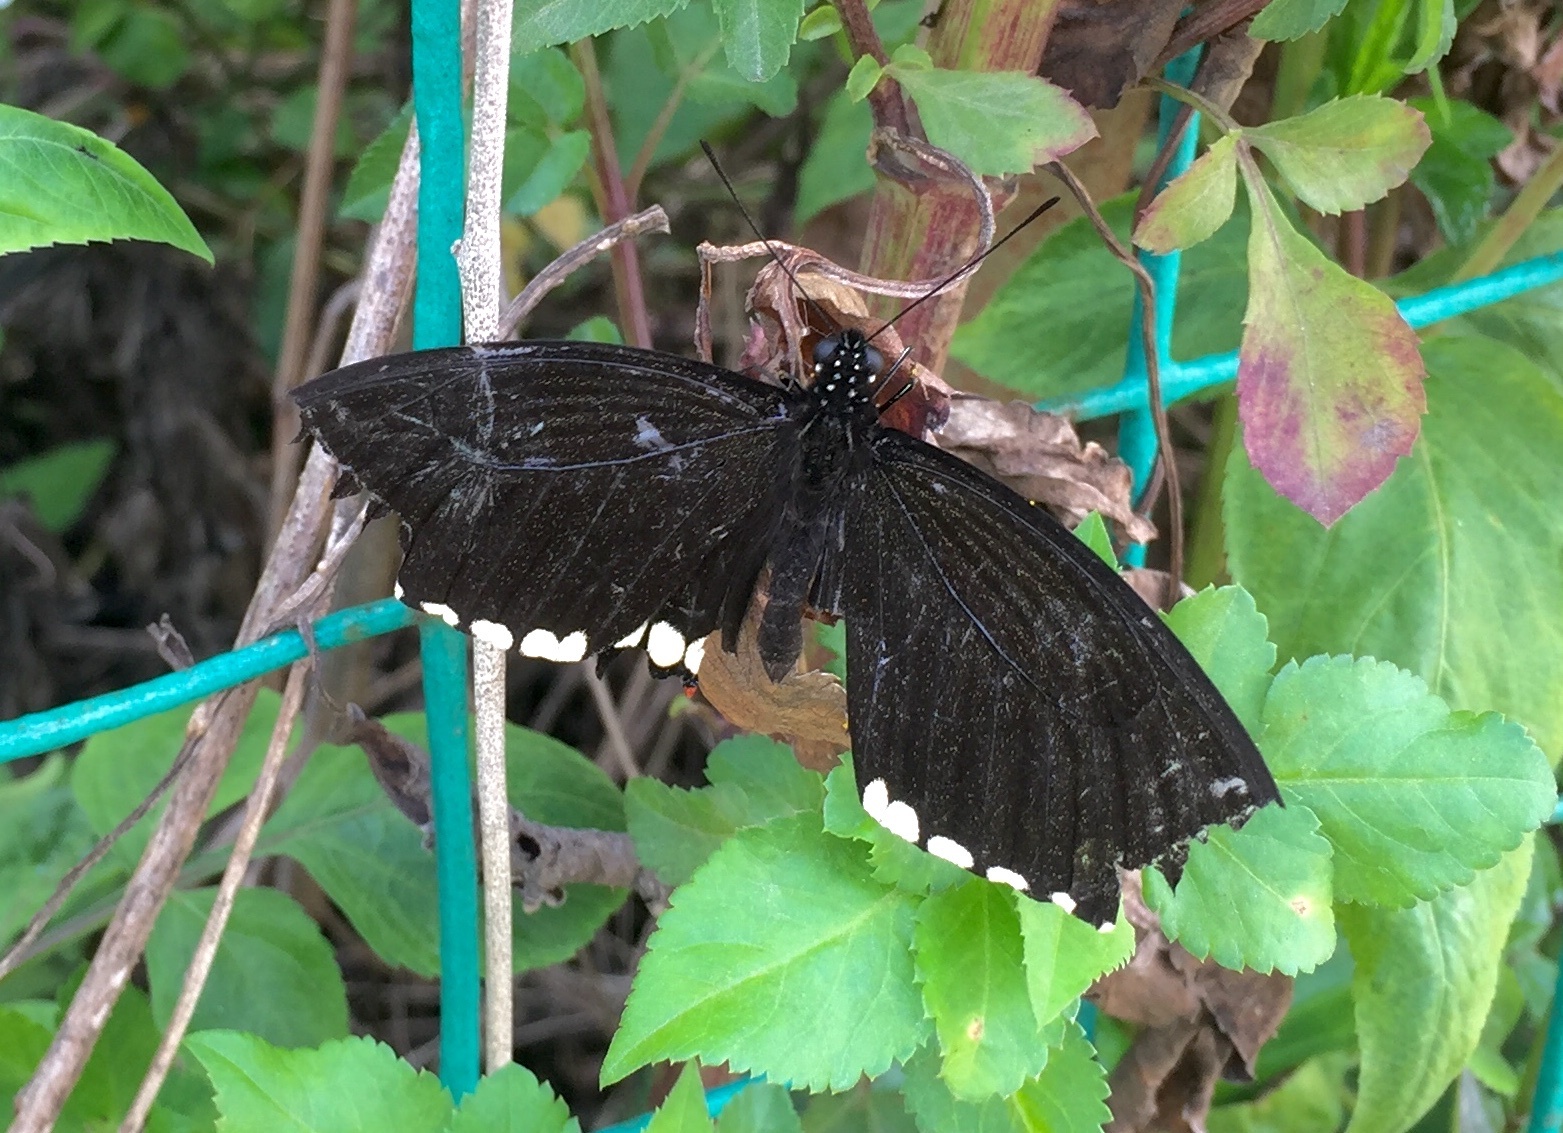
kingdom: Animalia
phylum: Arthropoda
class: Insecta
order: Lepidoptera
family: Papilionidae
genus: Papilio
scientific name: Papilio polytes
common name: Common mormon
